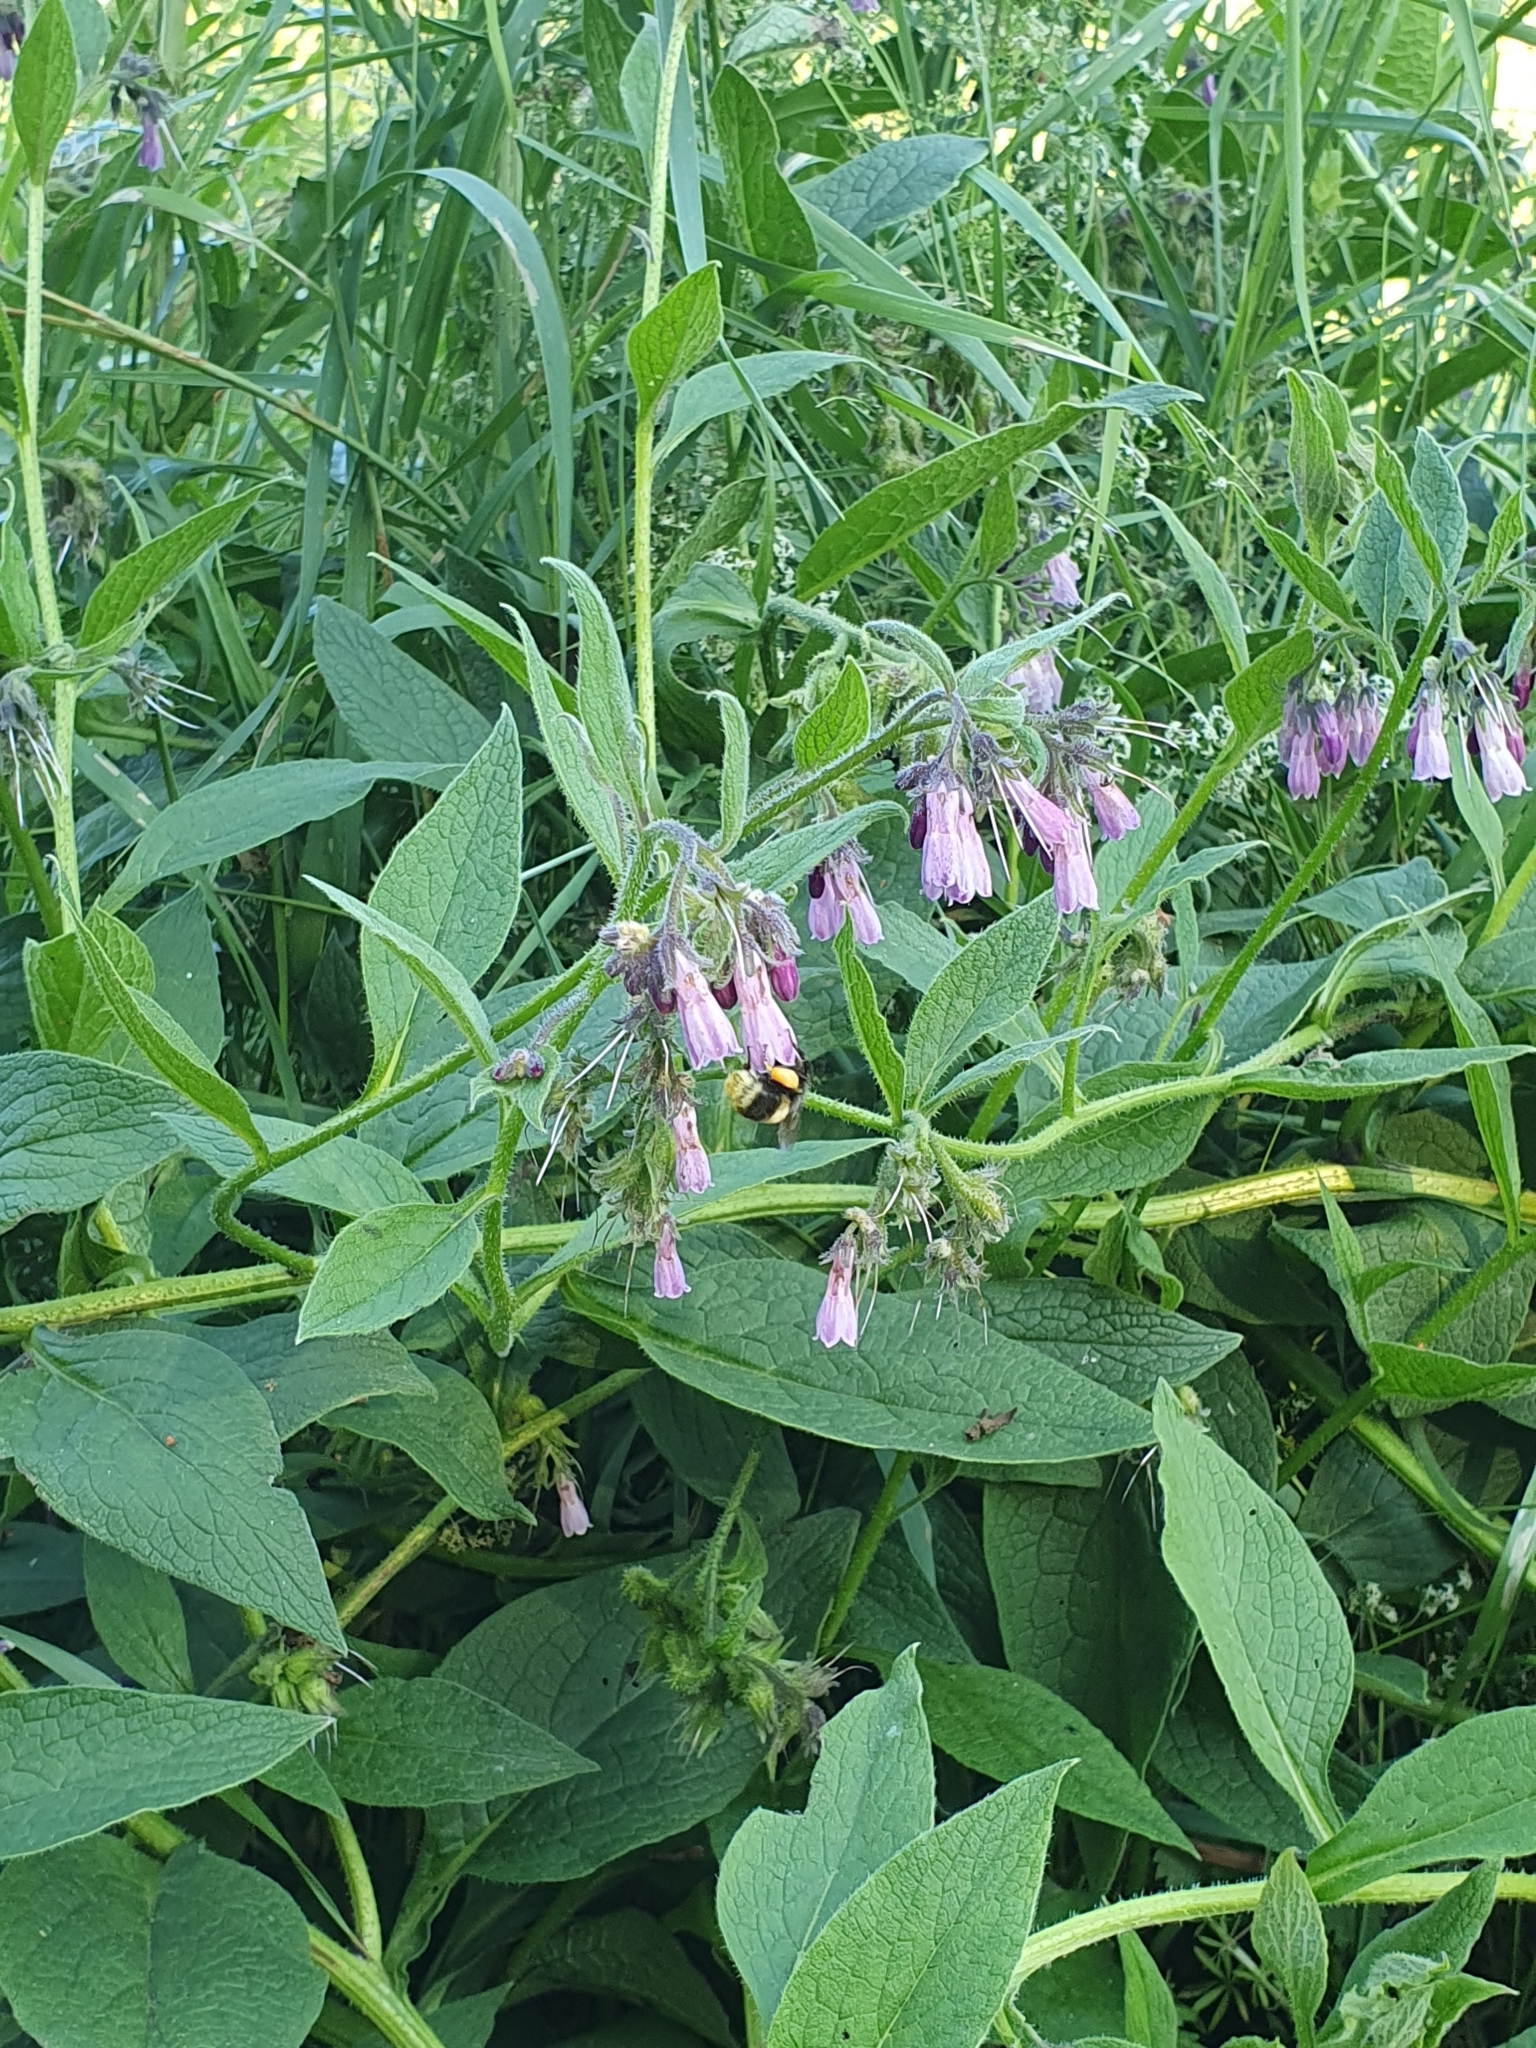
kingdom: Plantae
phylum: Tracheophyta
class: Magnoliopsida
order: Boraginales
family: Boraginaceae
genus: Symphytum
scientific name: Symphytum officinale
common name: Common comfrey
